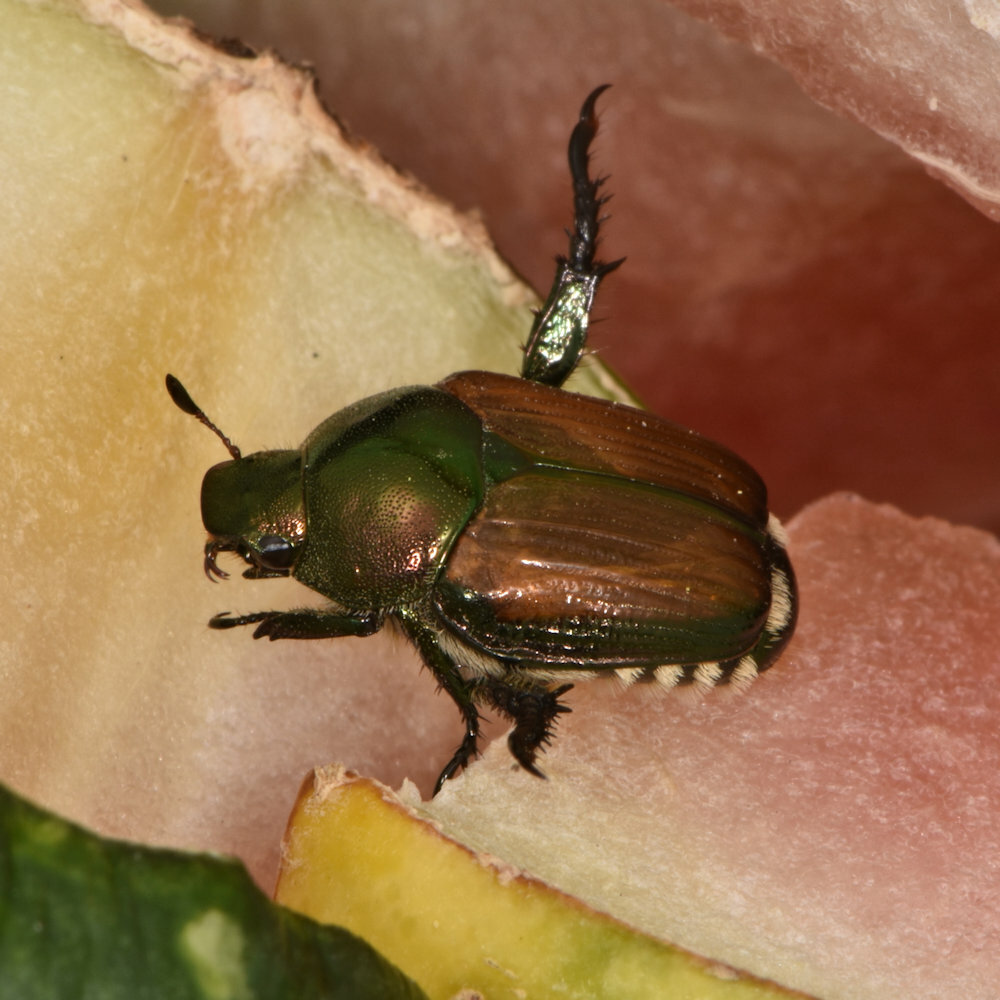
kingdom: Animalia
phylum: Arthropoda
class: Insecta
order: Coleoptera
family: Scarabaeidae
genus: Popillia
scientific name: Popillia japonica
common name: Japanese beetle
